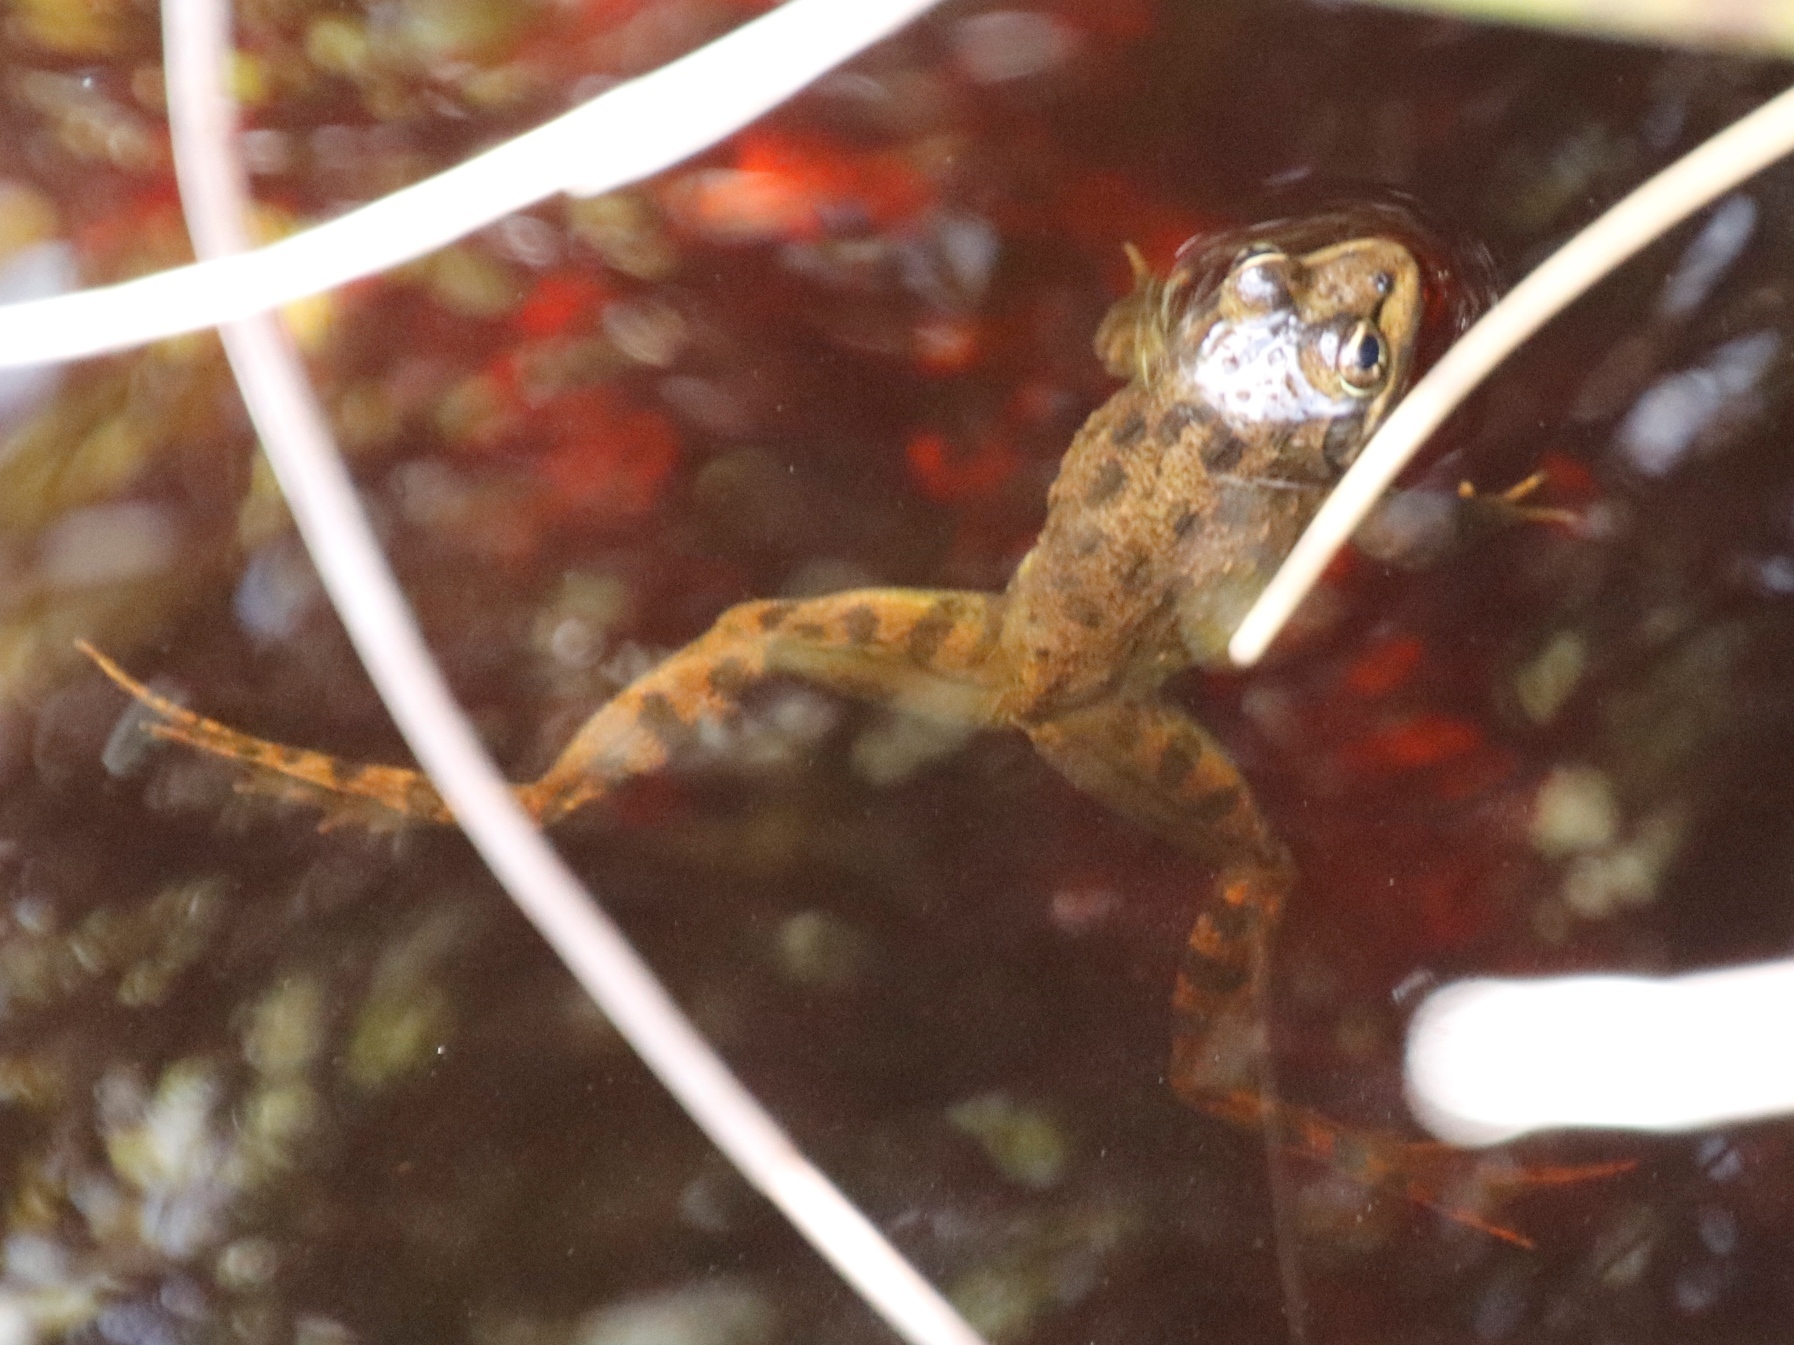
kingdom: Animalia
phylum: Chordata
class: Amphibia
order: Anura
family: Pyxicephalidae
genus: Amietia
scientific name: Amietia fuscigula
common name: Cape rana
